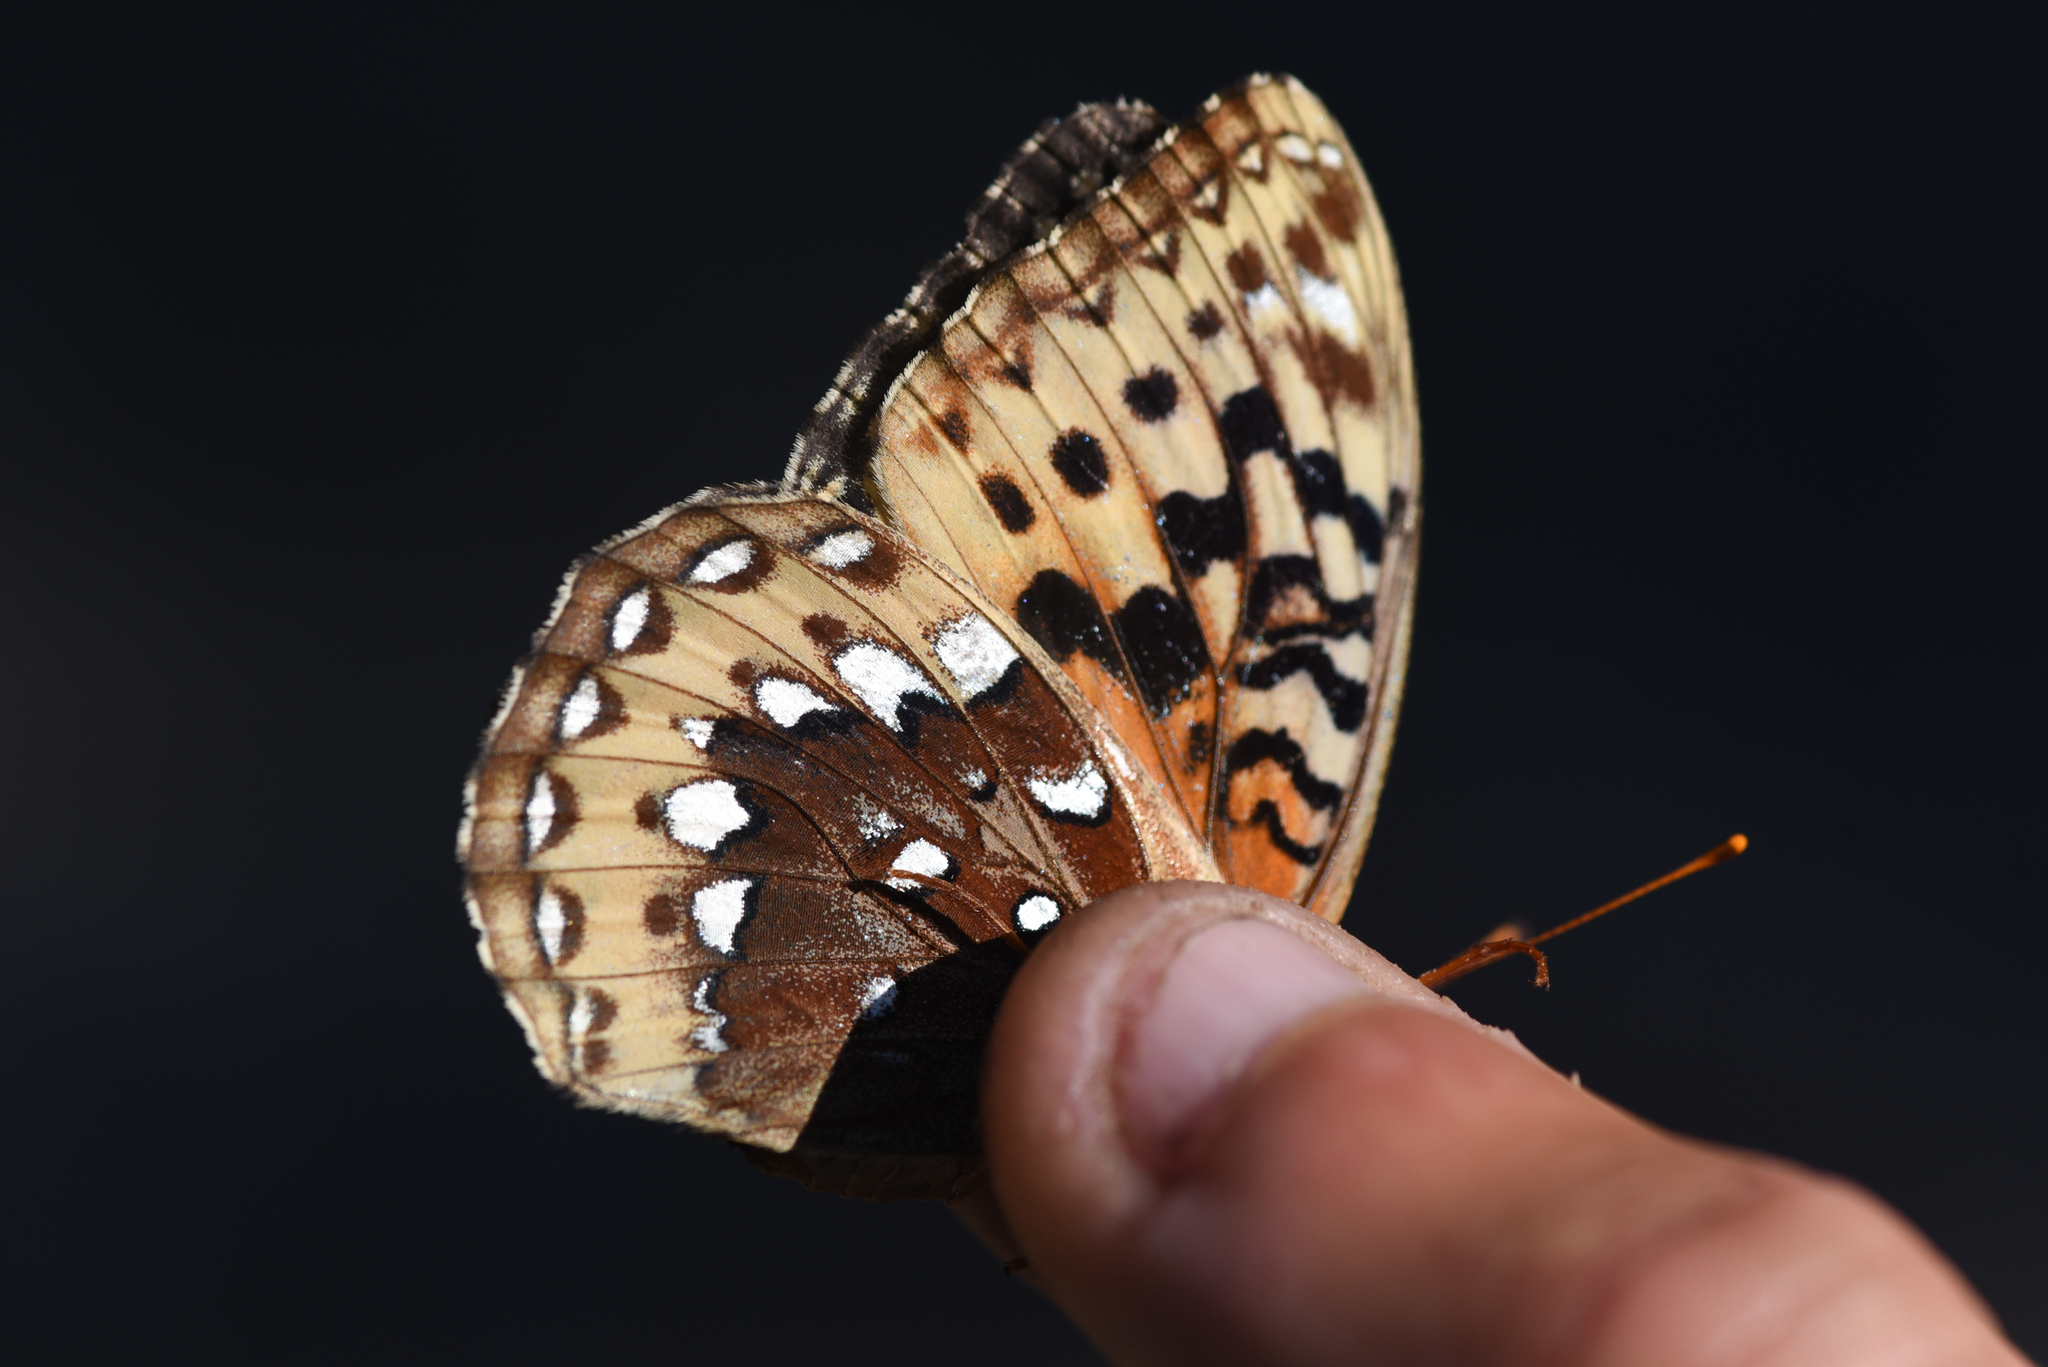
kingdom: Animalia
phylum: Arthropoda
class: Insecta
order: Lepidoptera
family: Nymphalidae
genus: Speyeria
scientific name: Speyeria cybele
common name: Great spangled fritillary
